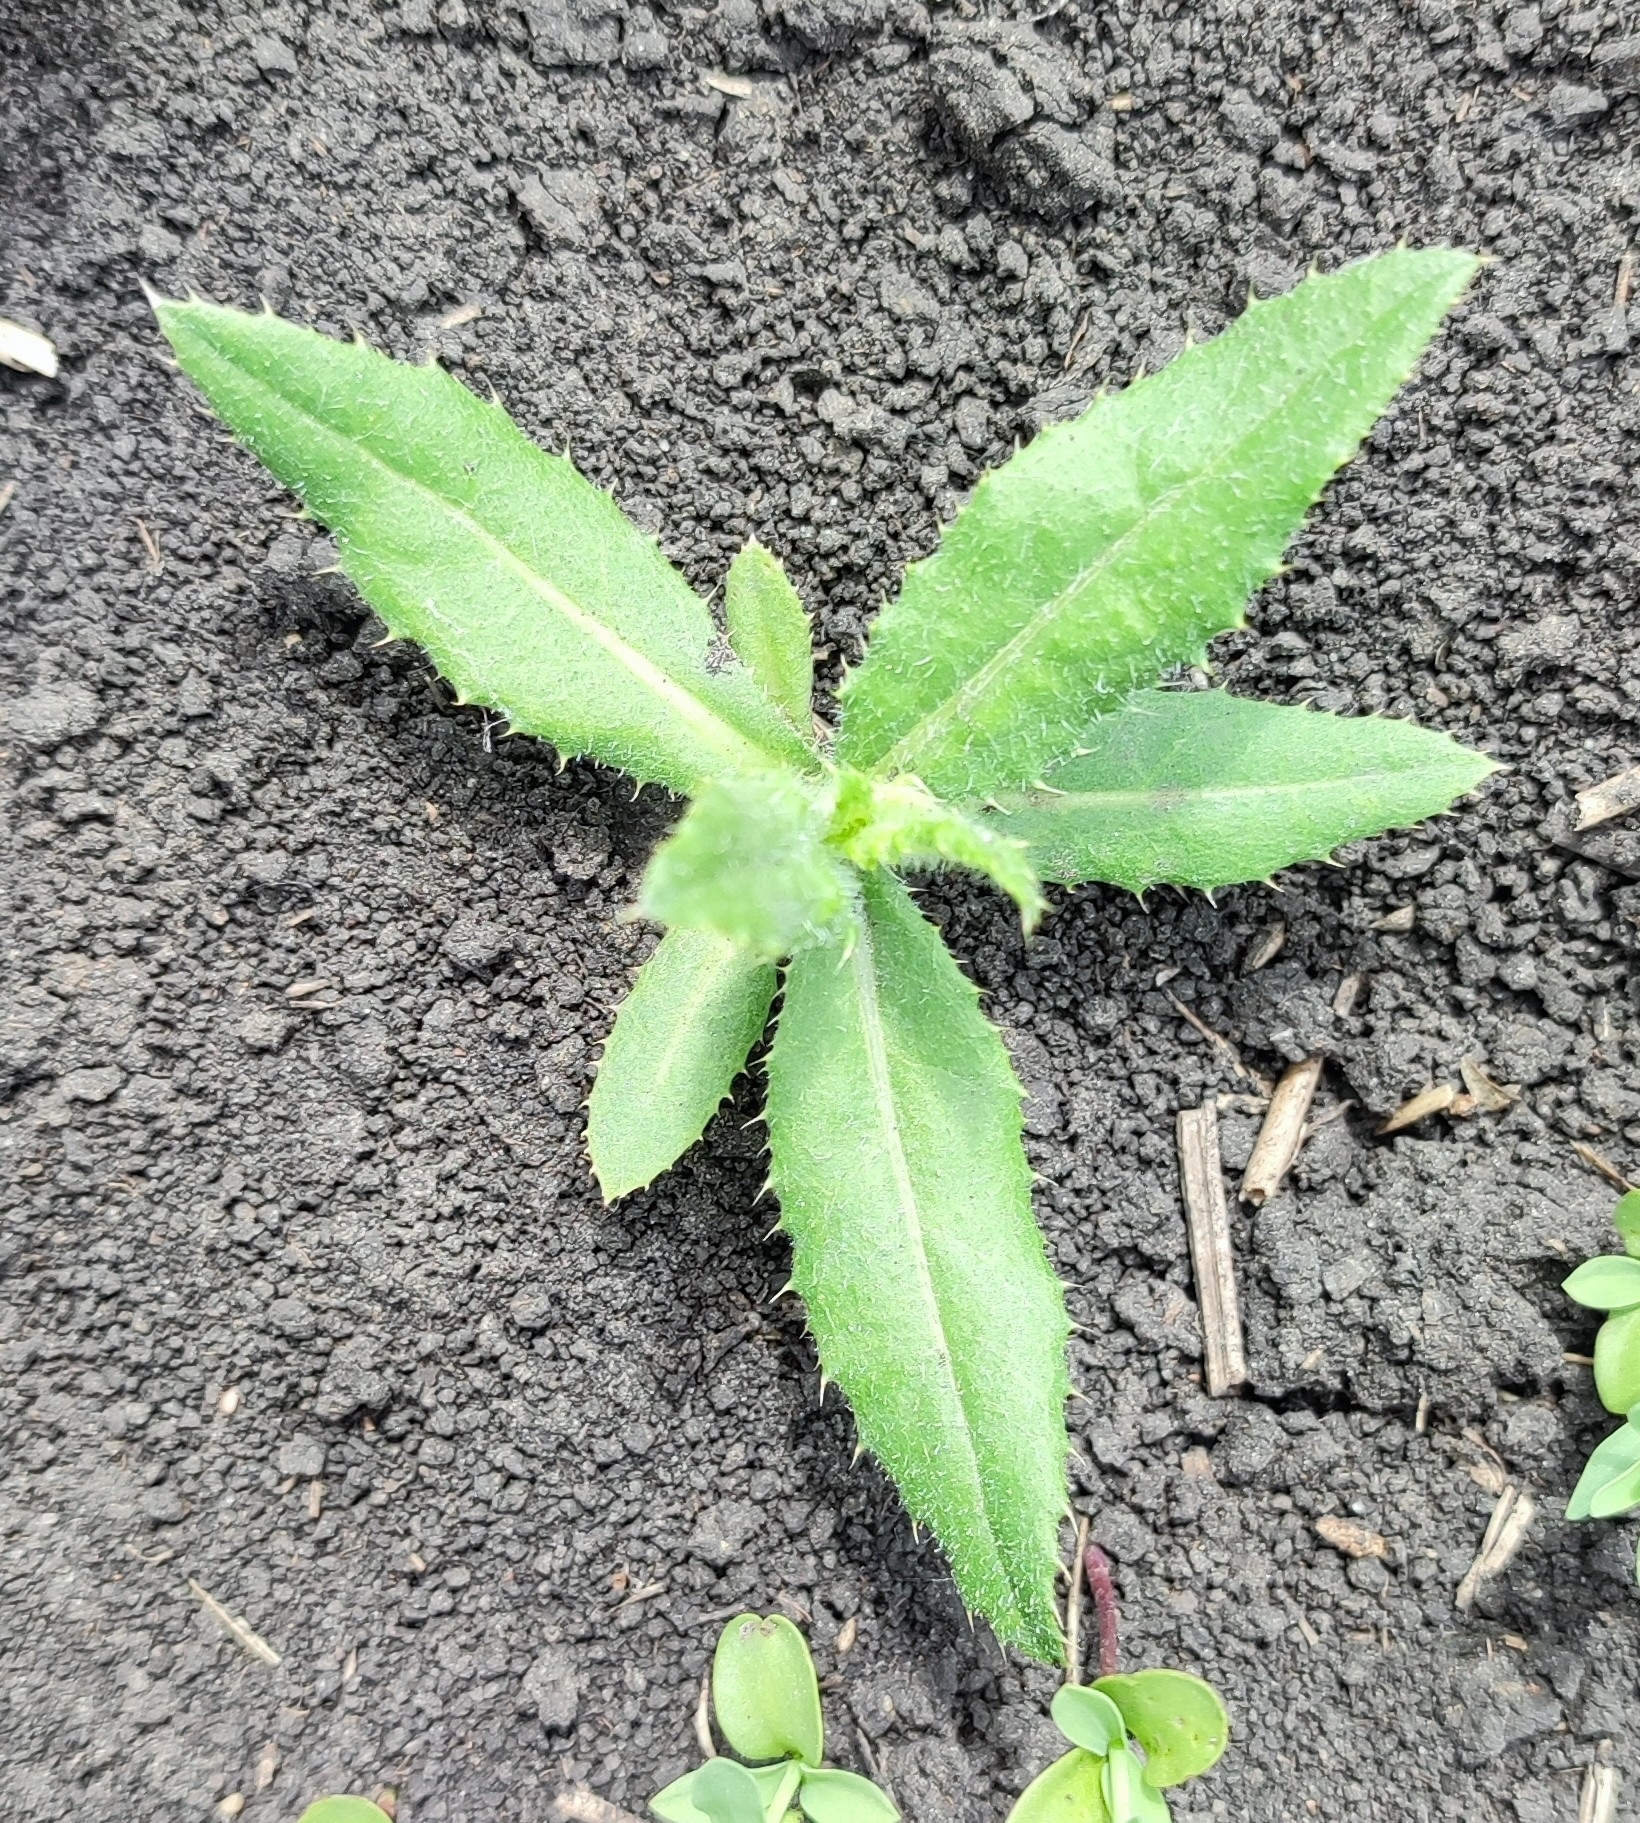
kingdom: Plantae
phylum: Tracheophyta
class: Magnoliopsida
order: Asterales
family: Asteraceae
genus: Cirsium
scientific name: Cirsium arvense
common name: Creeping thistle
